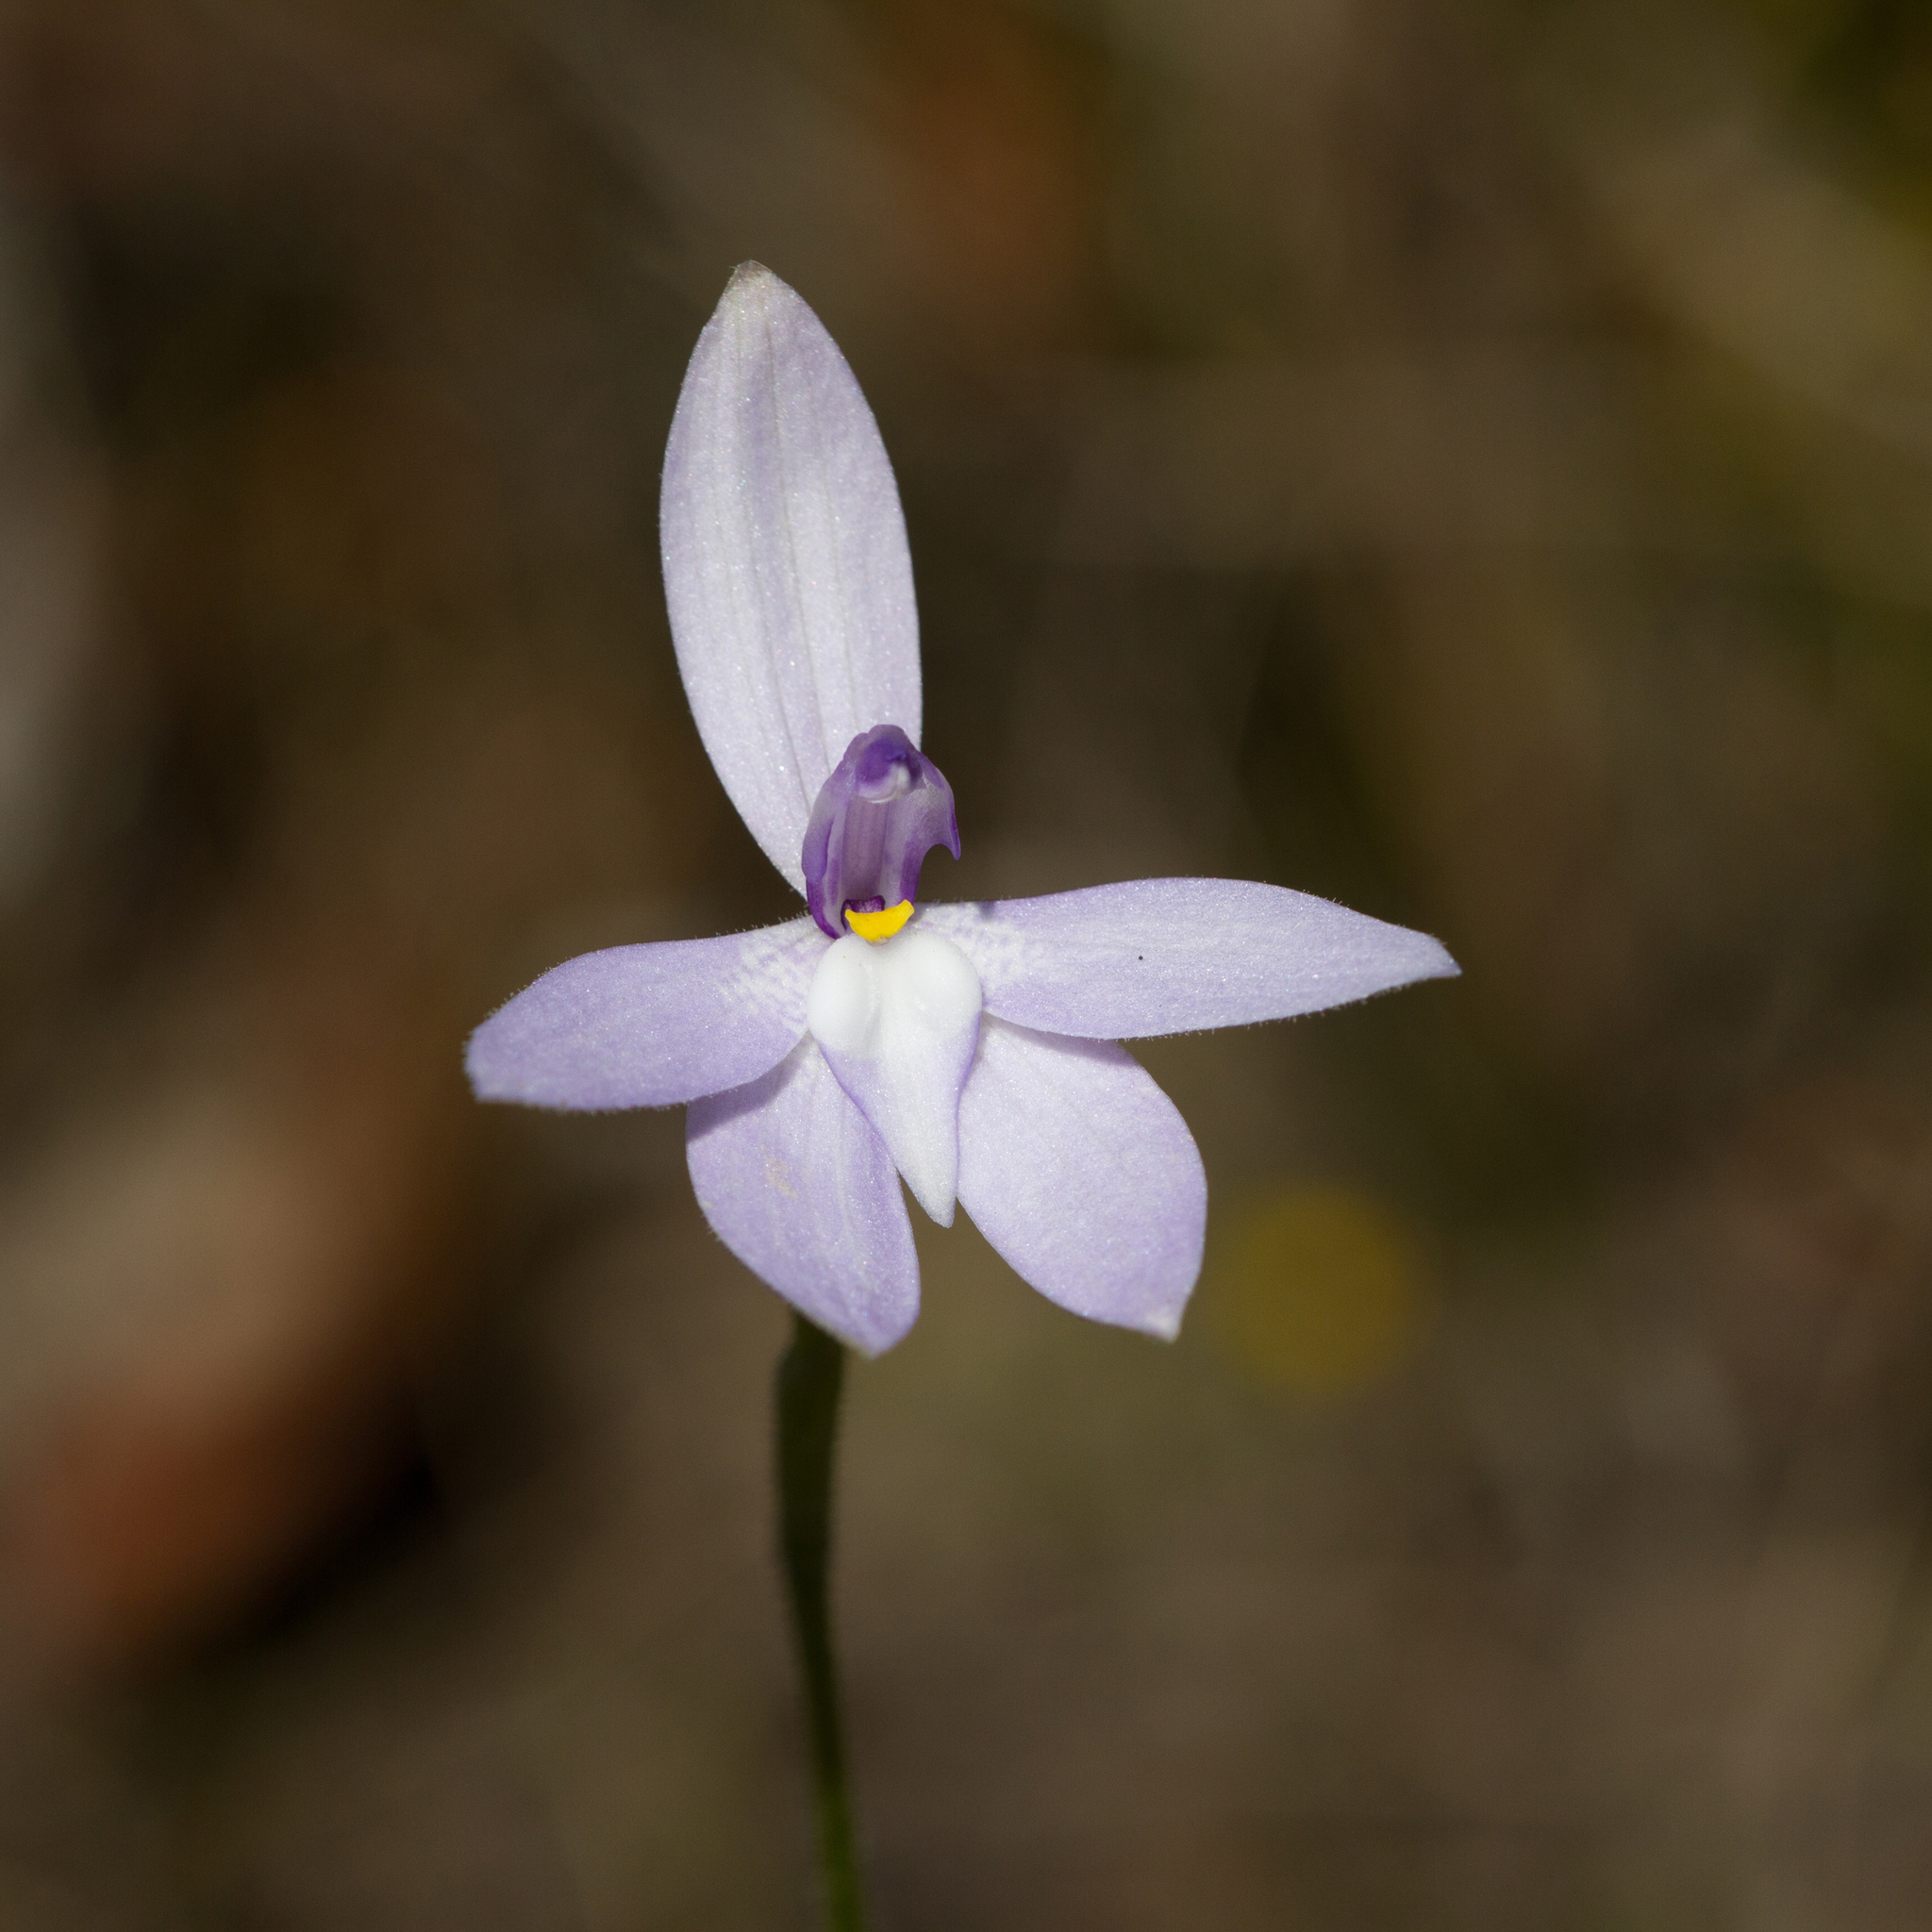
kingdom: Plantae
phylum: Tracheophyta
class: Liliopsida
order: Asparagales
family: Orchidaceae
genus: Caladenia
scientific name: Caladenia major
